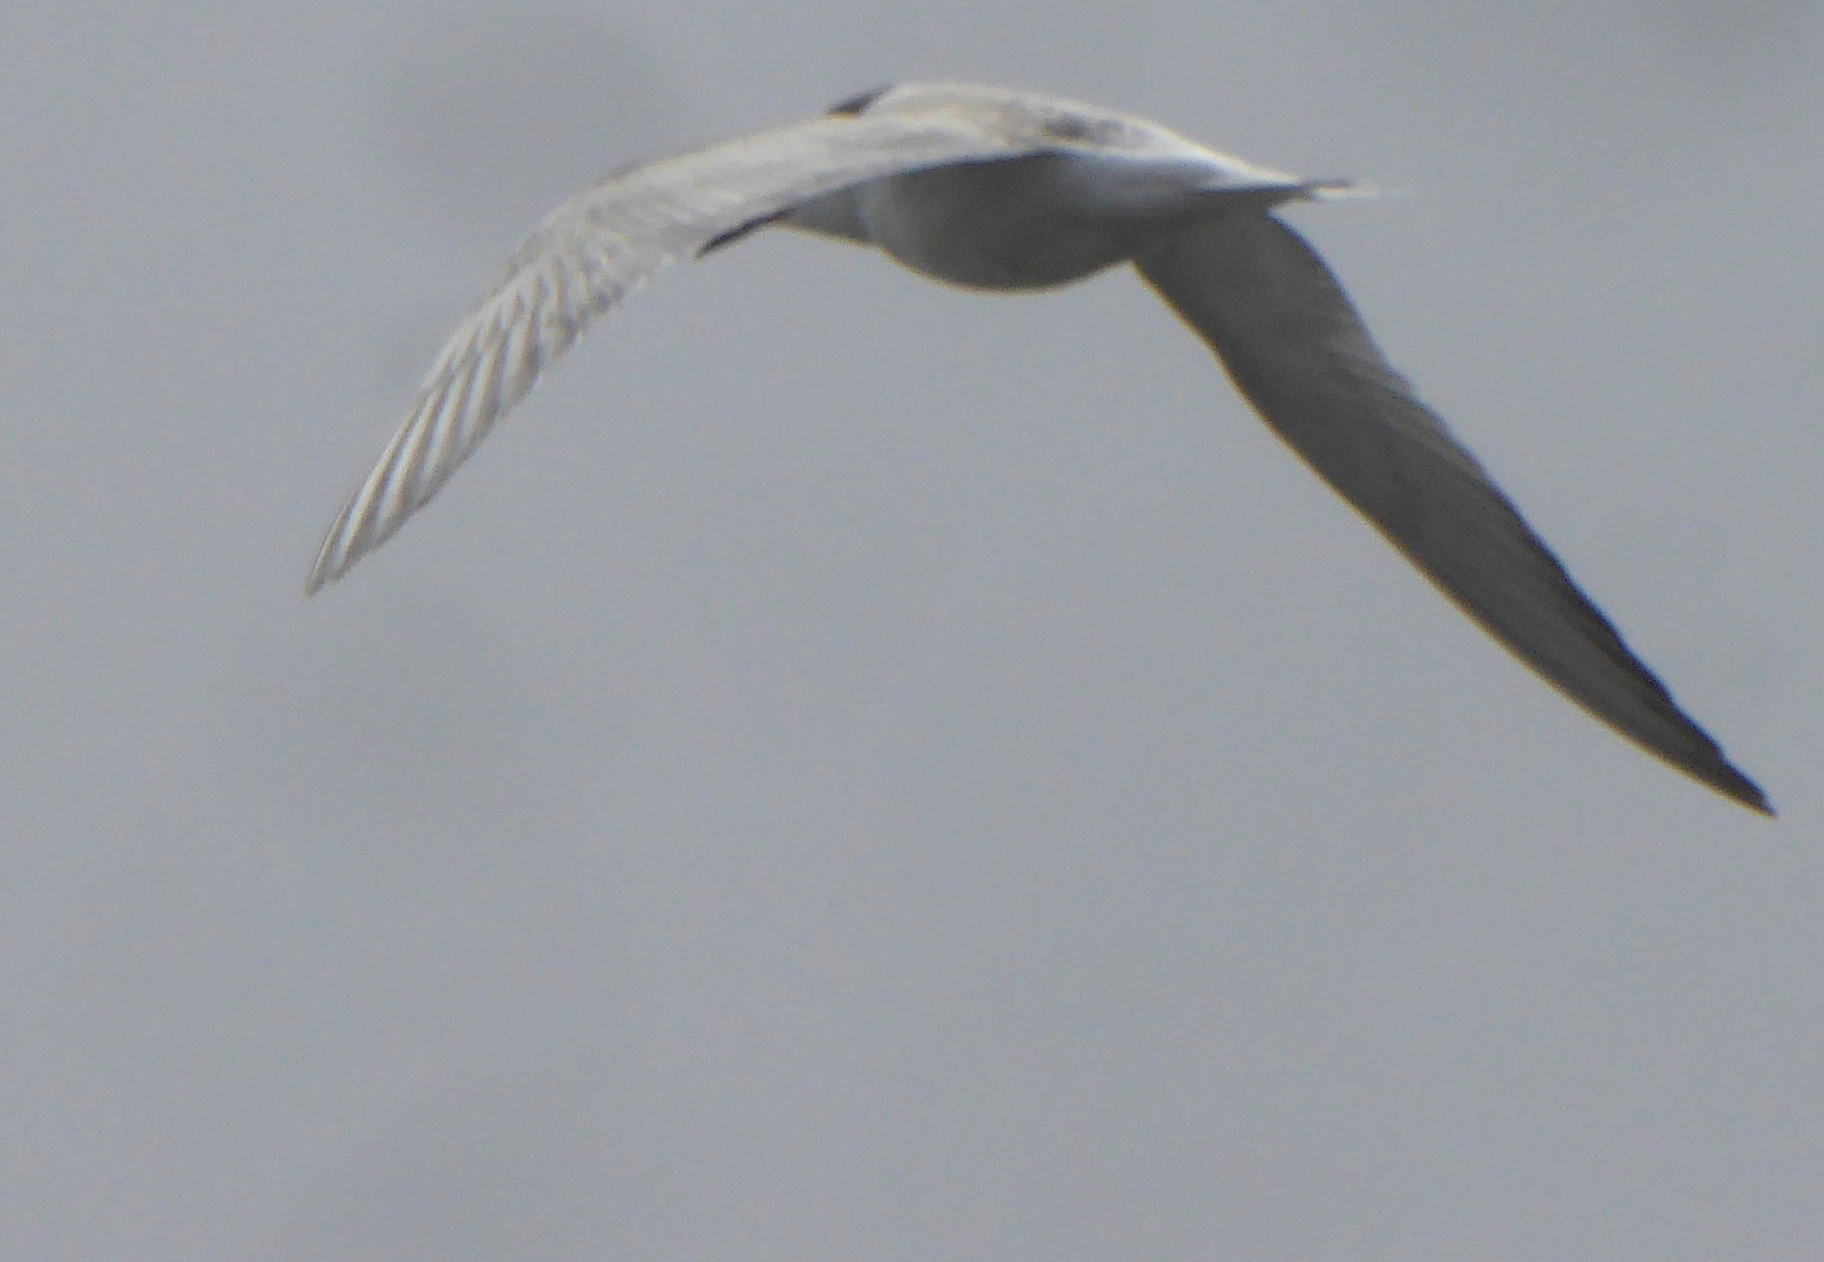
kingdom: Animalia
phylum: Chordata
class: Aves
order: Charadriiformes
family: Laridae
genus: Sterna
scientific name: Sterna hirundo
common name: Common tern
